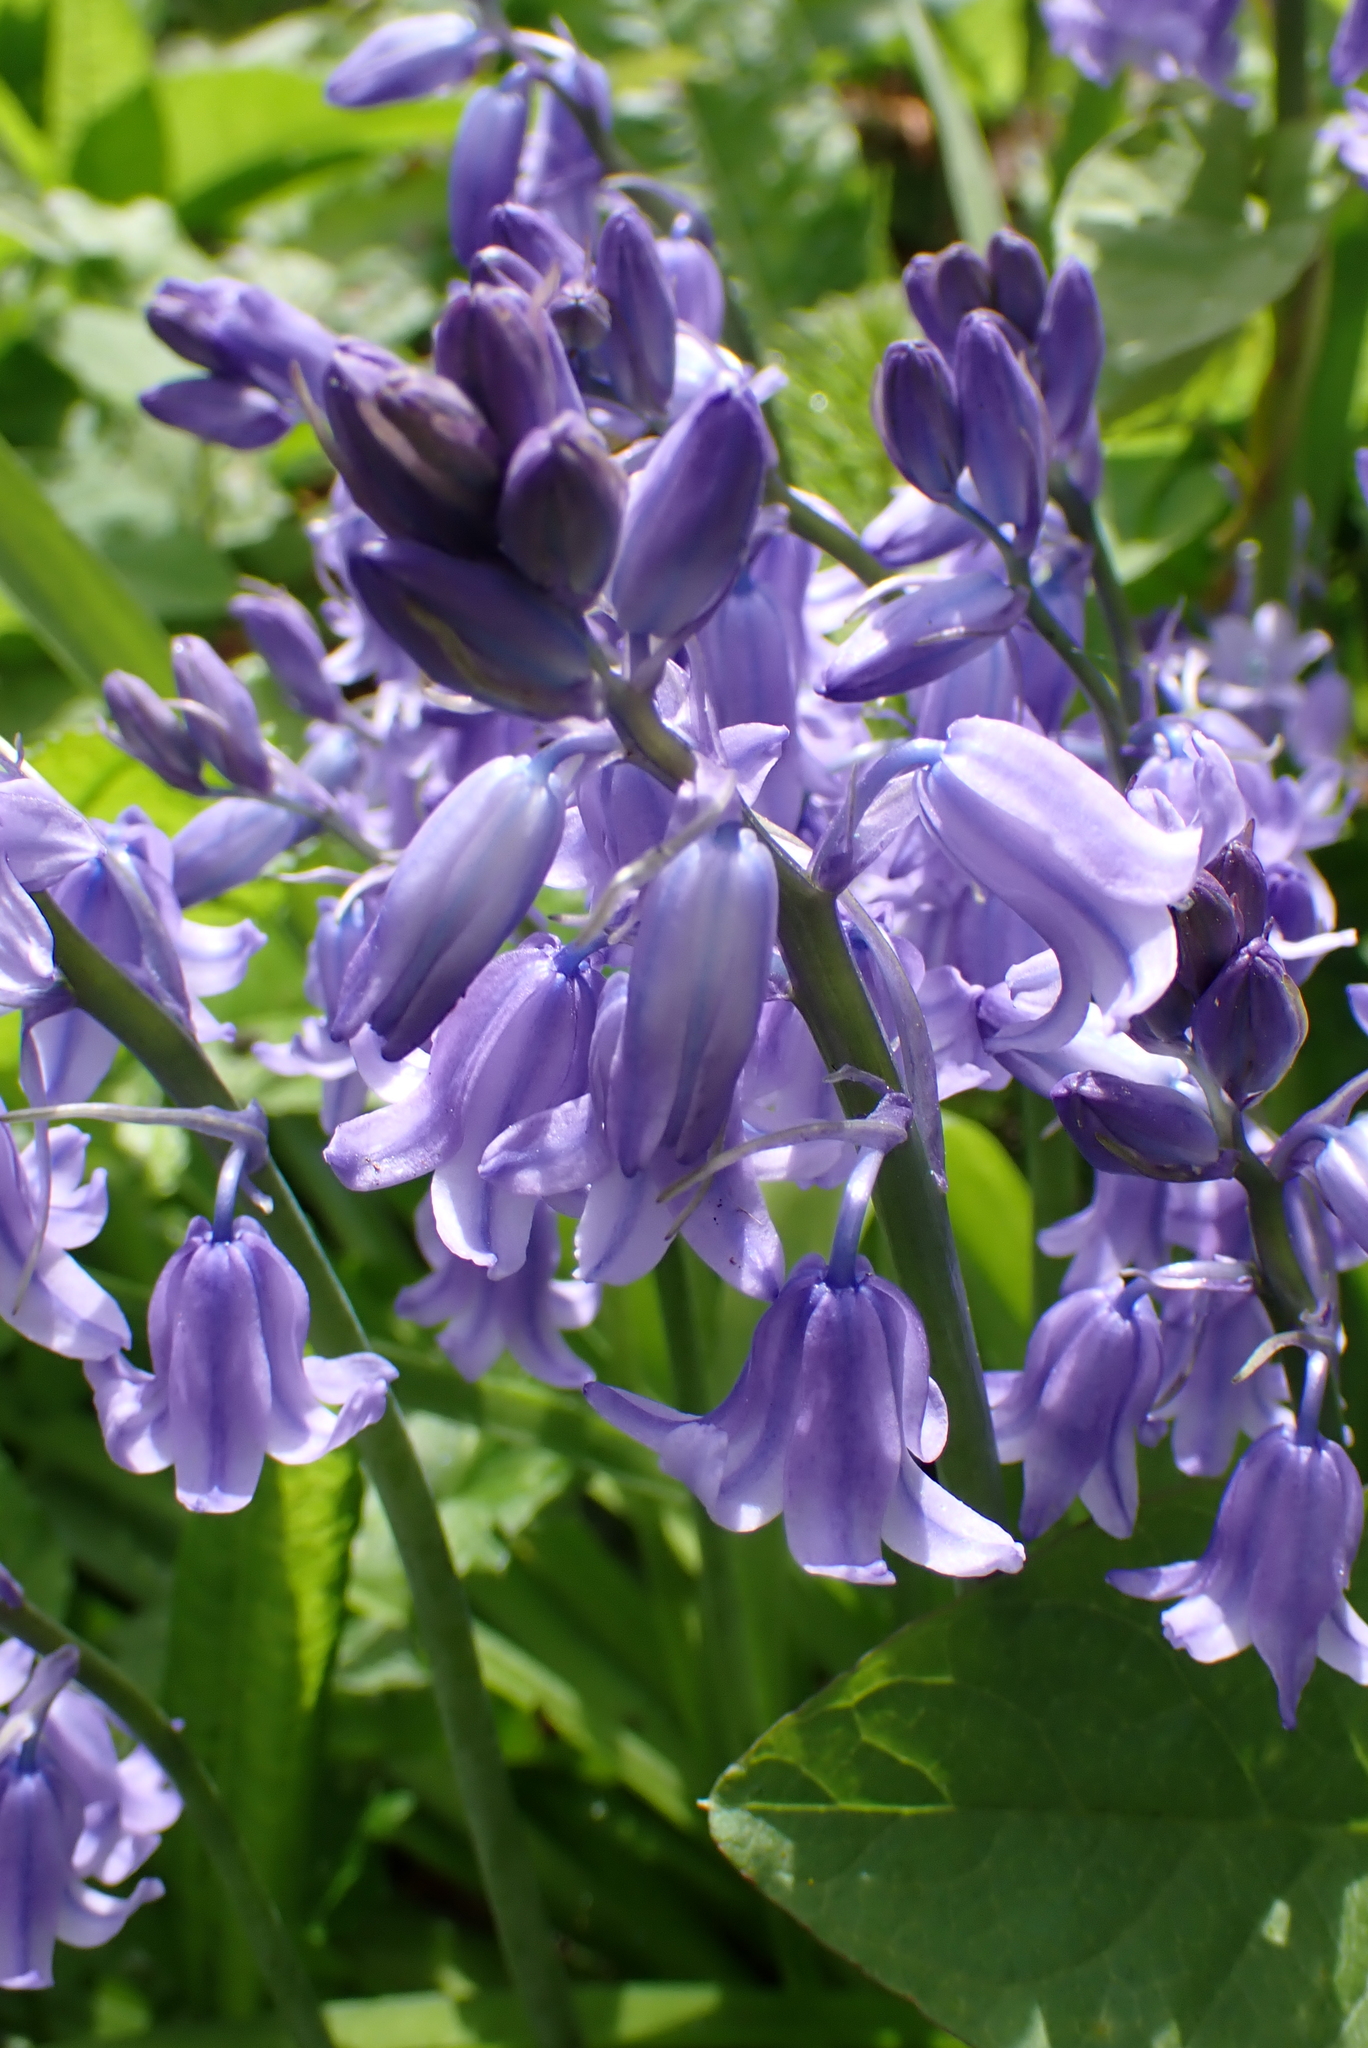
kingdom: Plantae
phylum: Tracheophyta
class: Liliopsida
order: Asparagales
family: Asparagaceae
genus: Hyacinthoides
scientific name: Hyacinthoides massartiana
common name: Hyacinthoides
